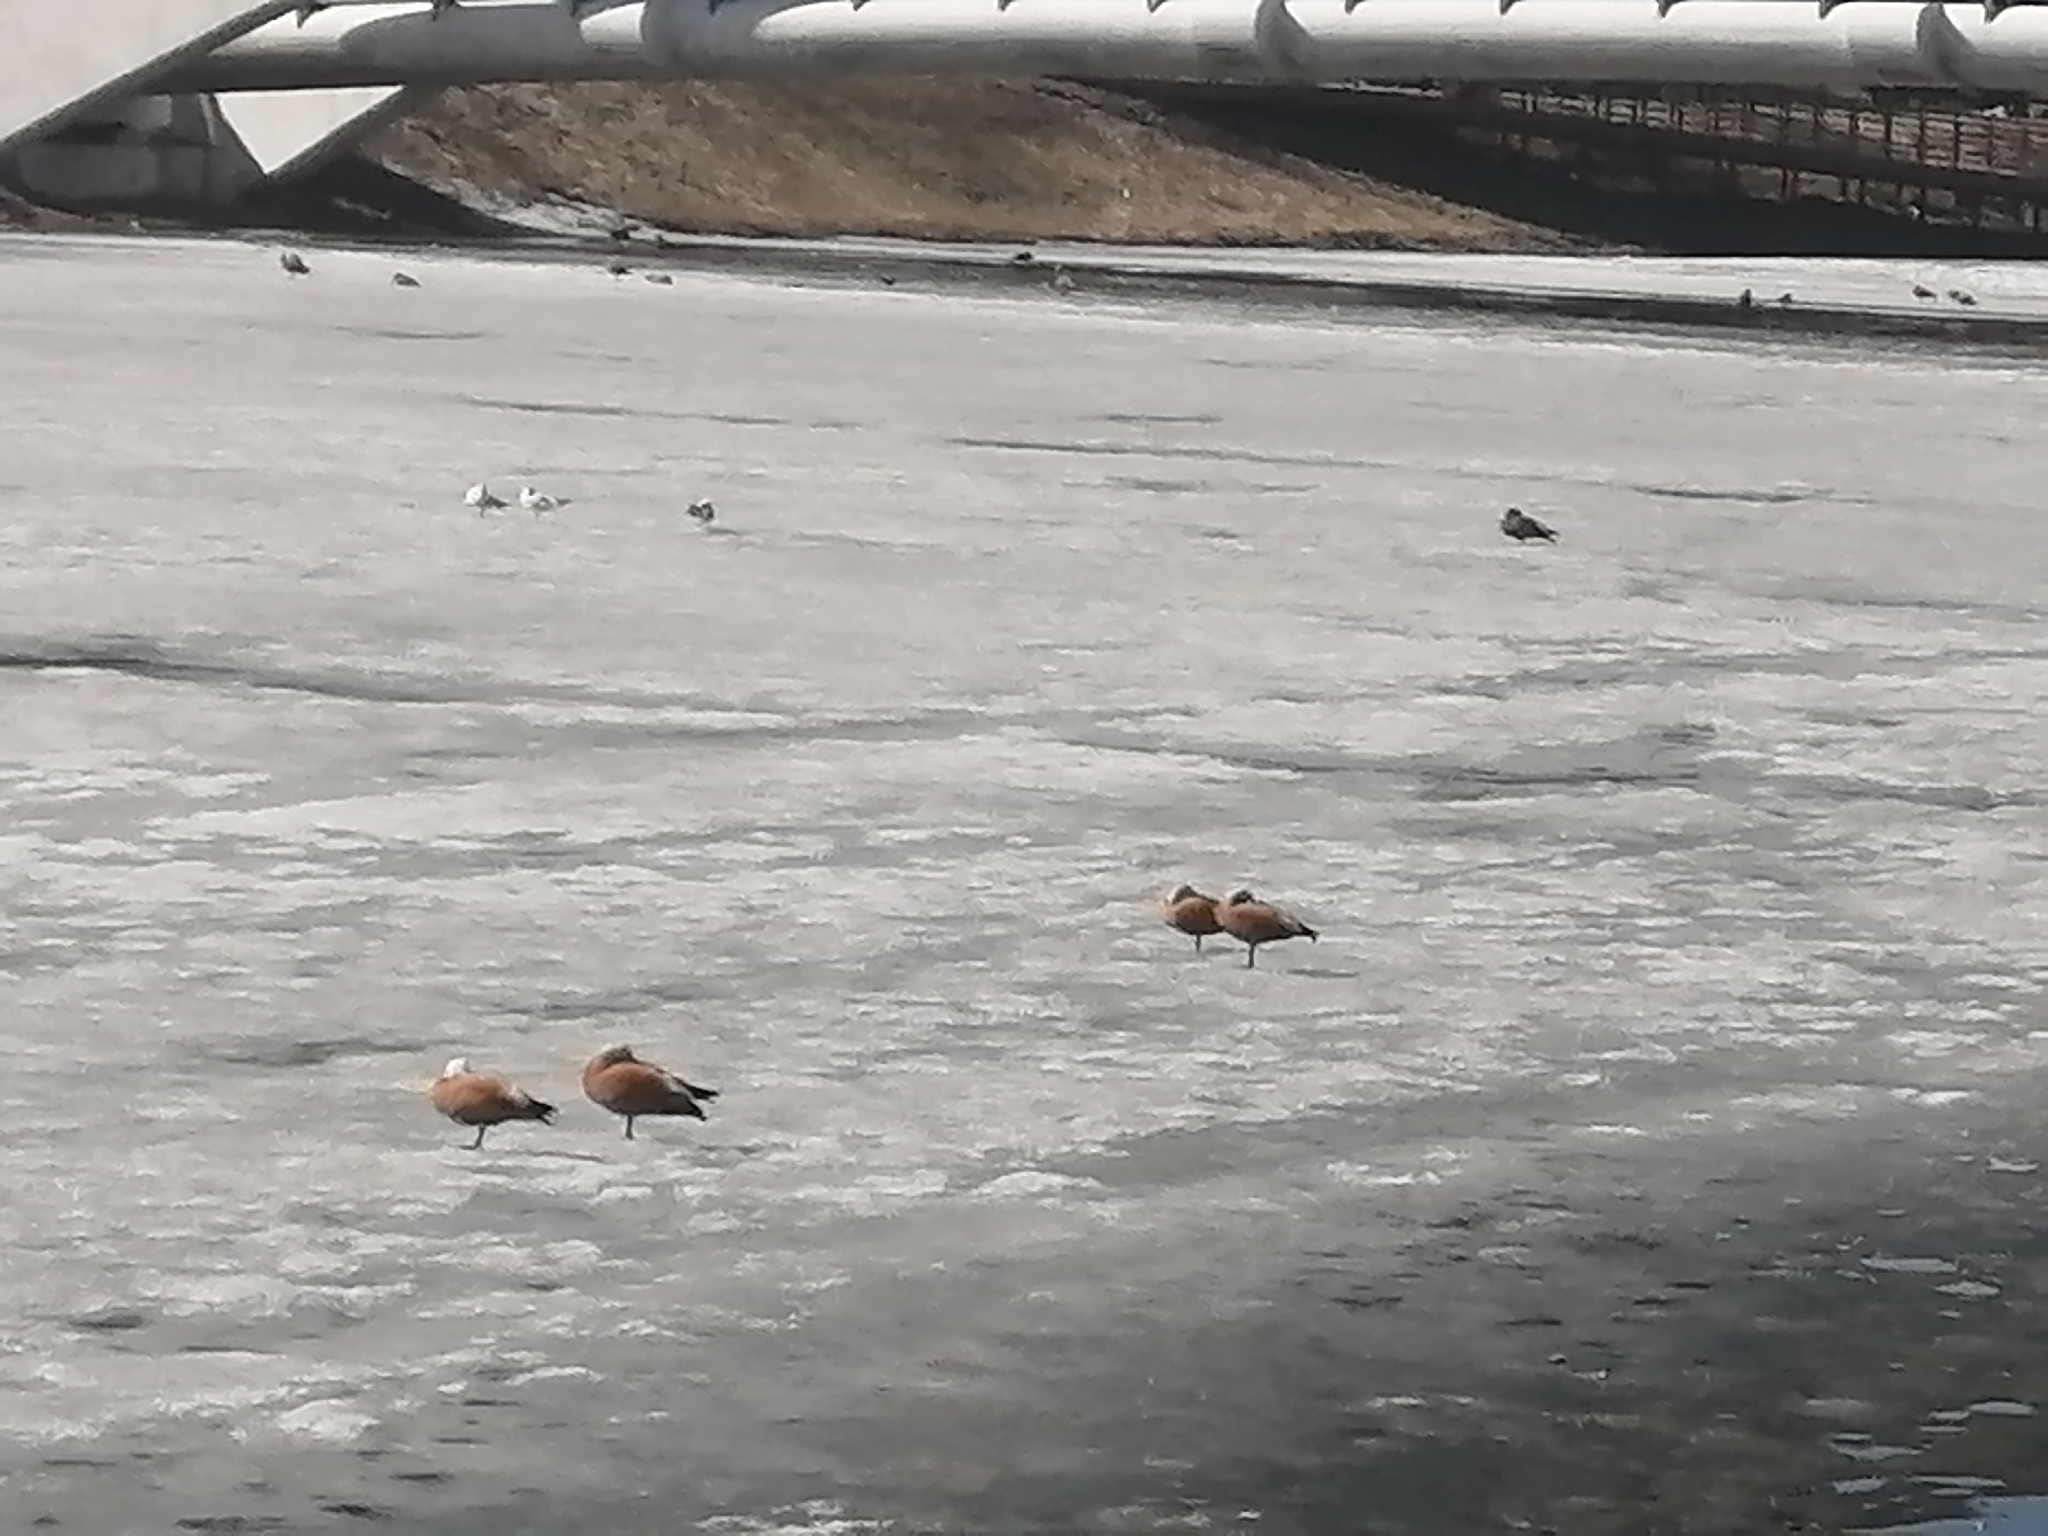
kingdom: Animalia
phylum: Chordata
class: Aves
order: Anseriformes
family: Anatidae
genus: Tadorna
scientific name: Tadorna ferruginea
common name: Ruddy shelduck
